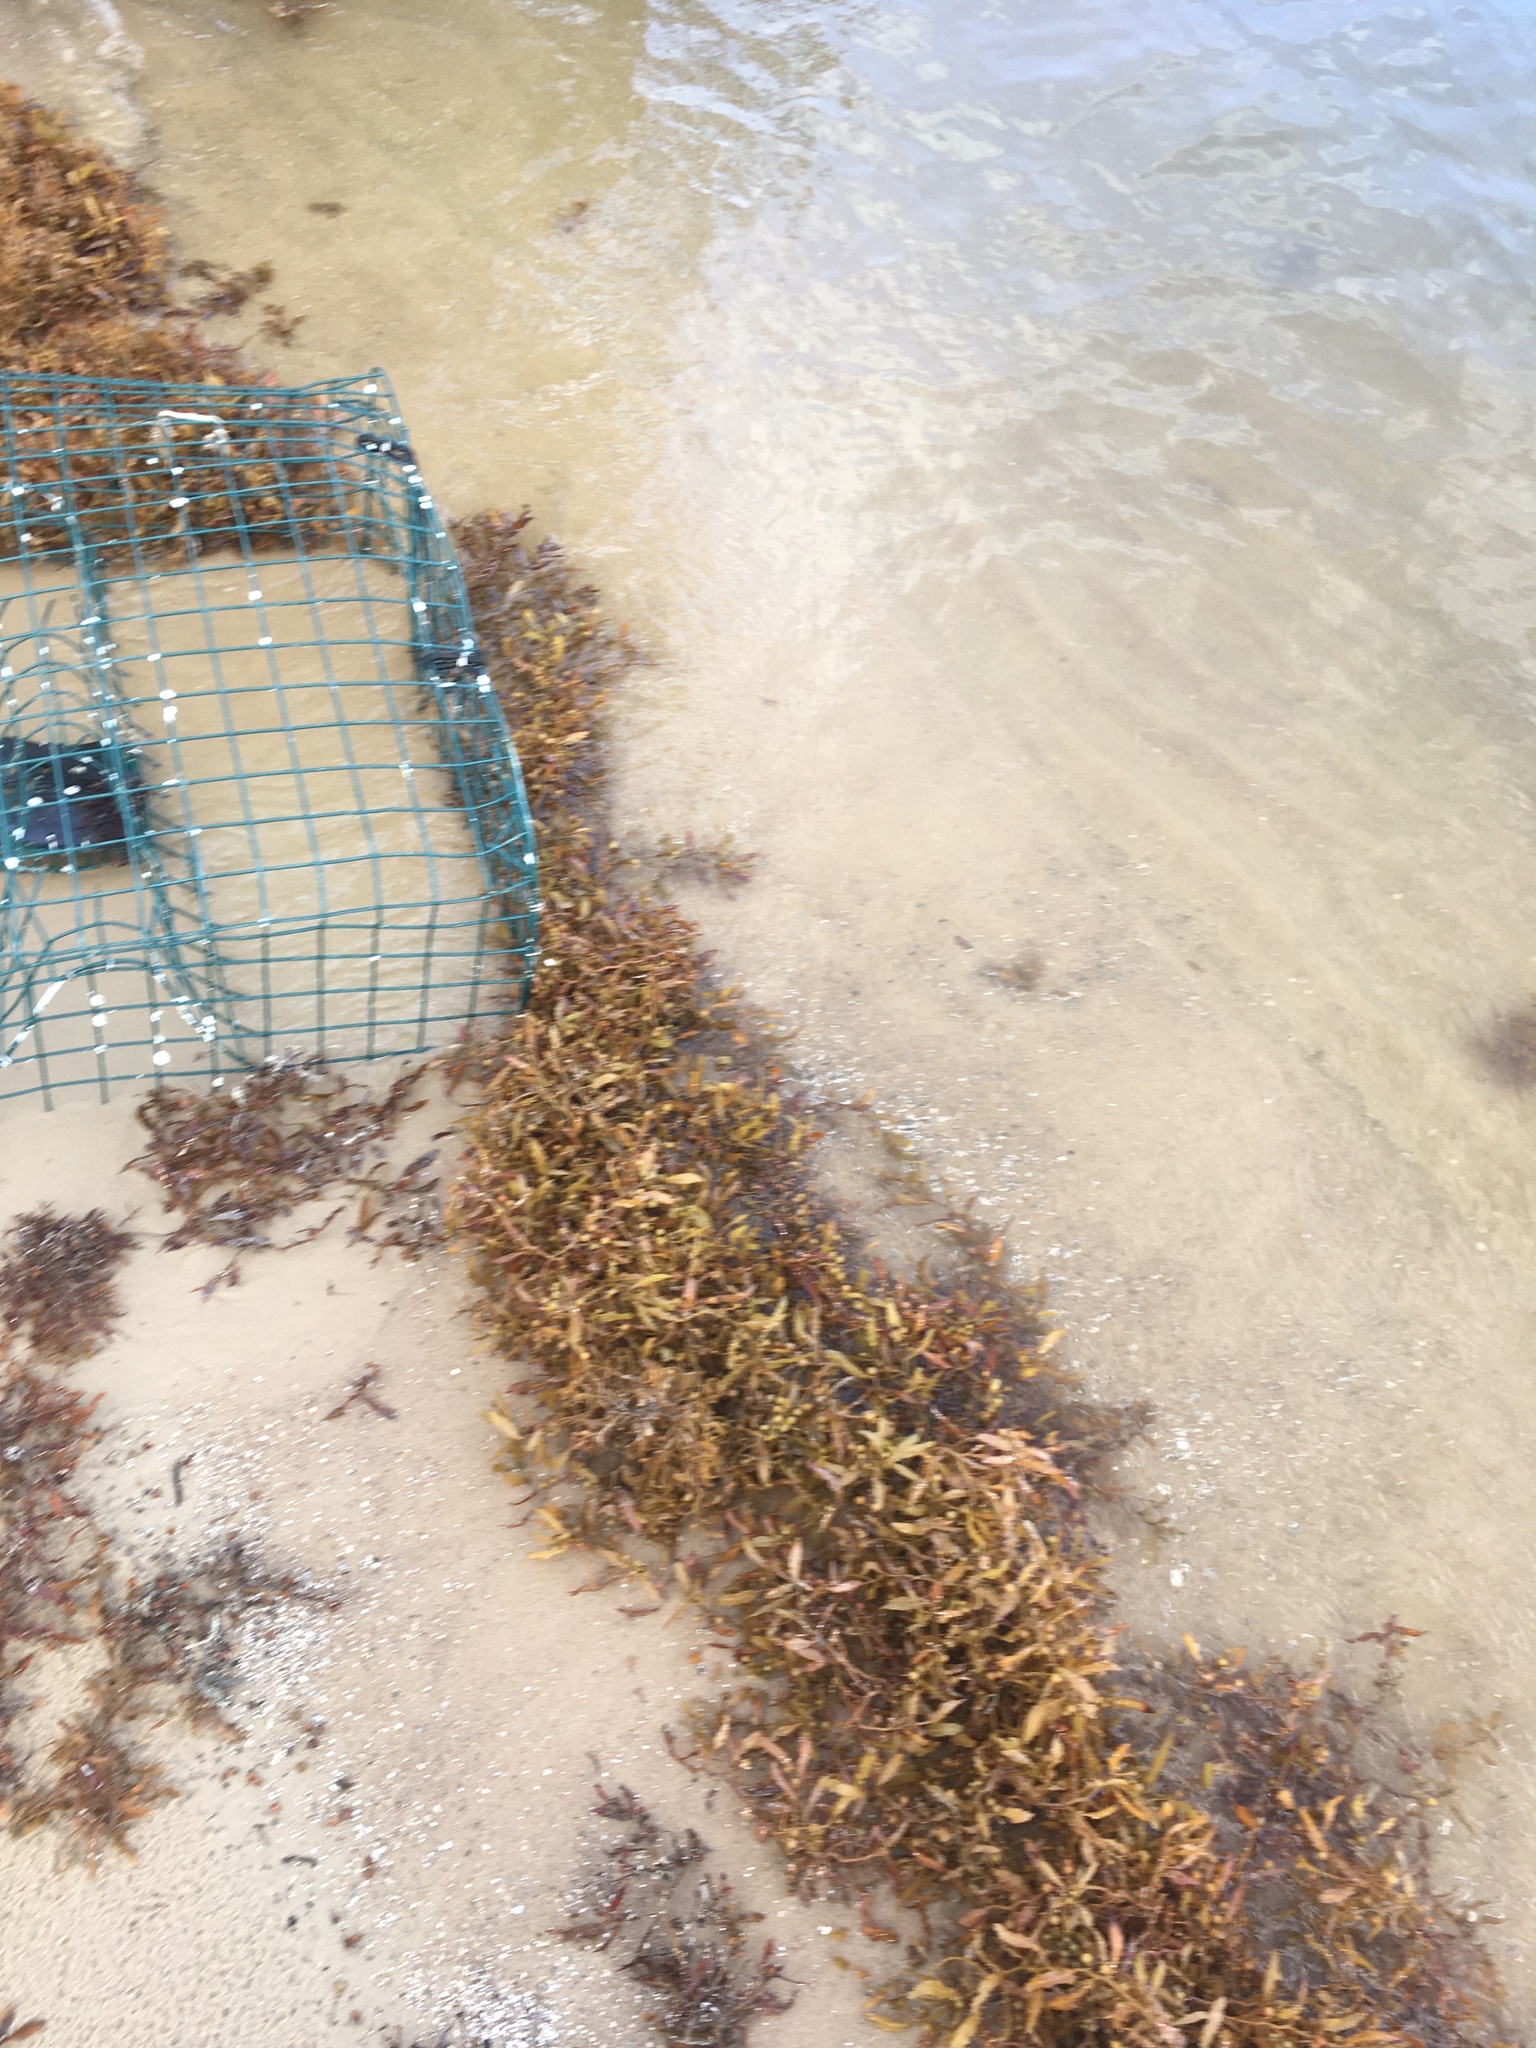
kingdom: Chromista
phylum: Ochrophyta
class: Phaeophyceae
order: Fucales
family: Sargassaceae
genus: Sargassum
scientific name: Sargassum fluitans
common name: Sargassum seaweed
